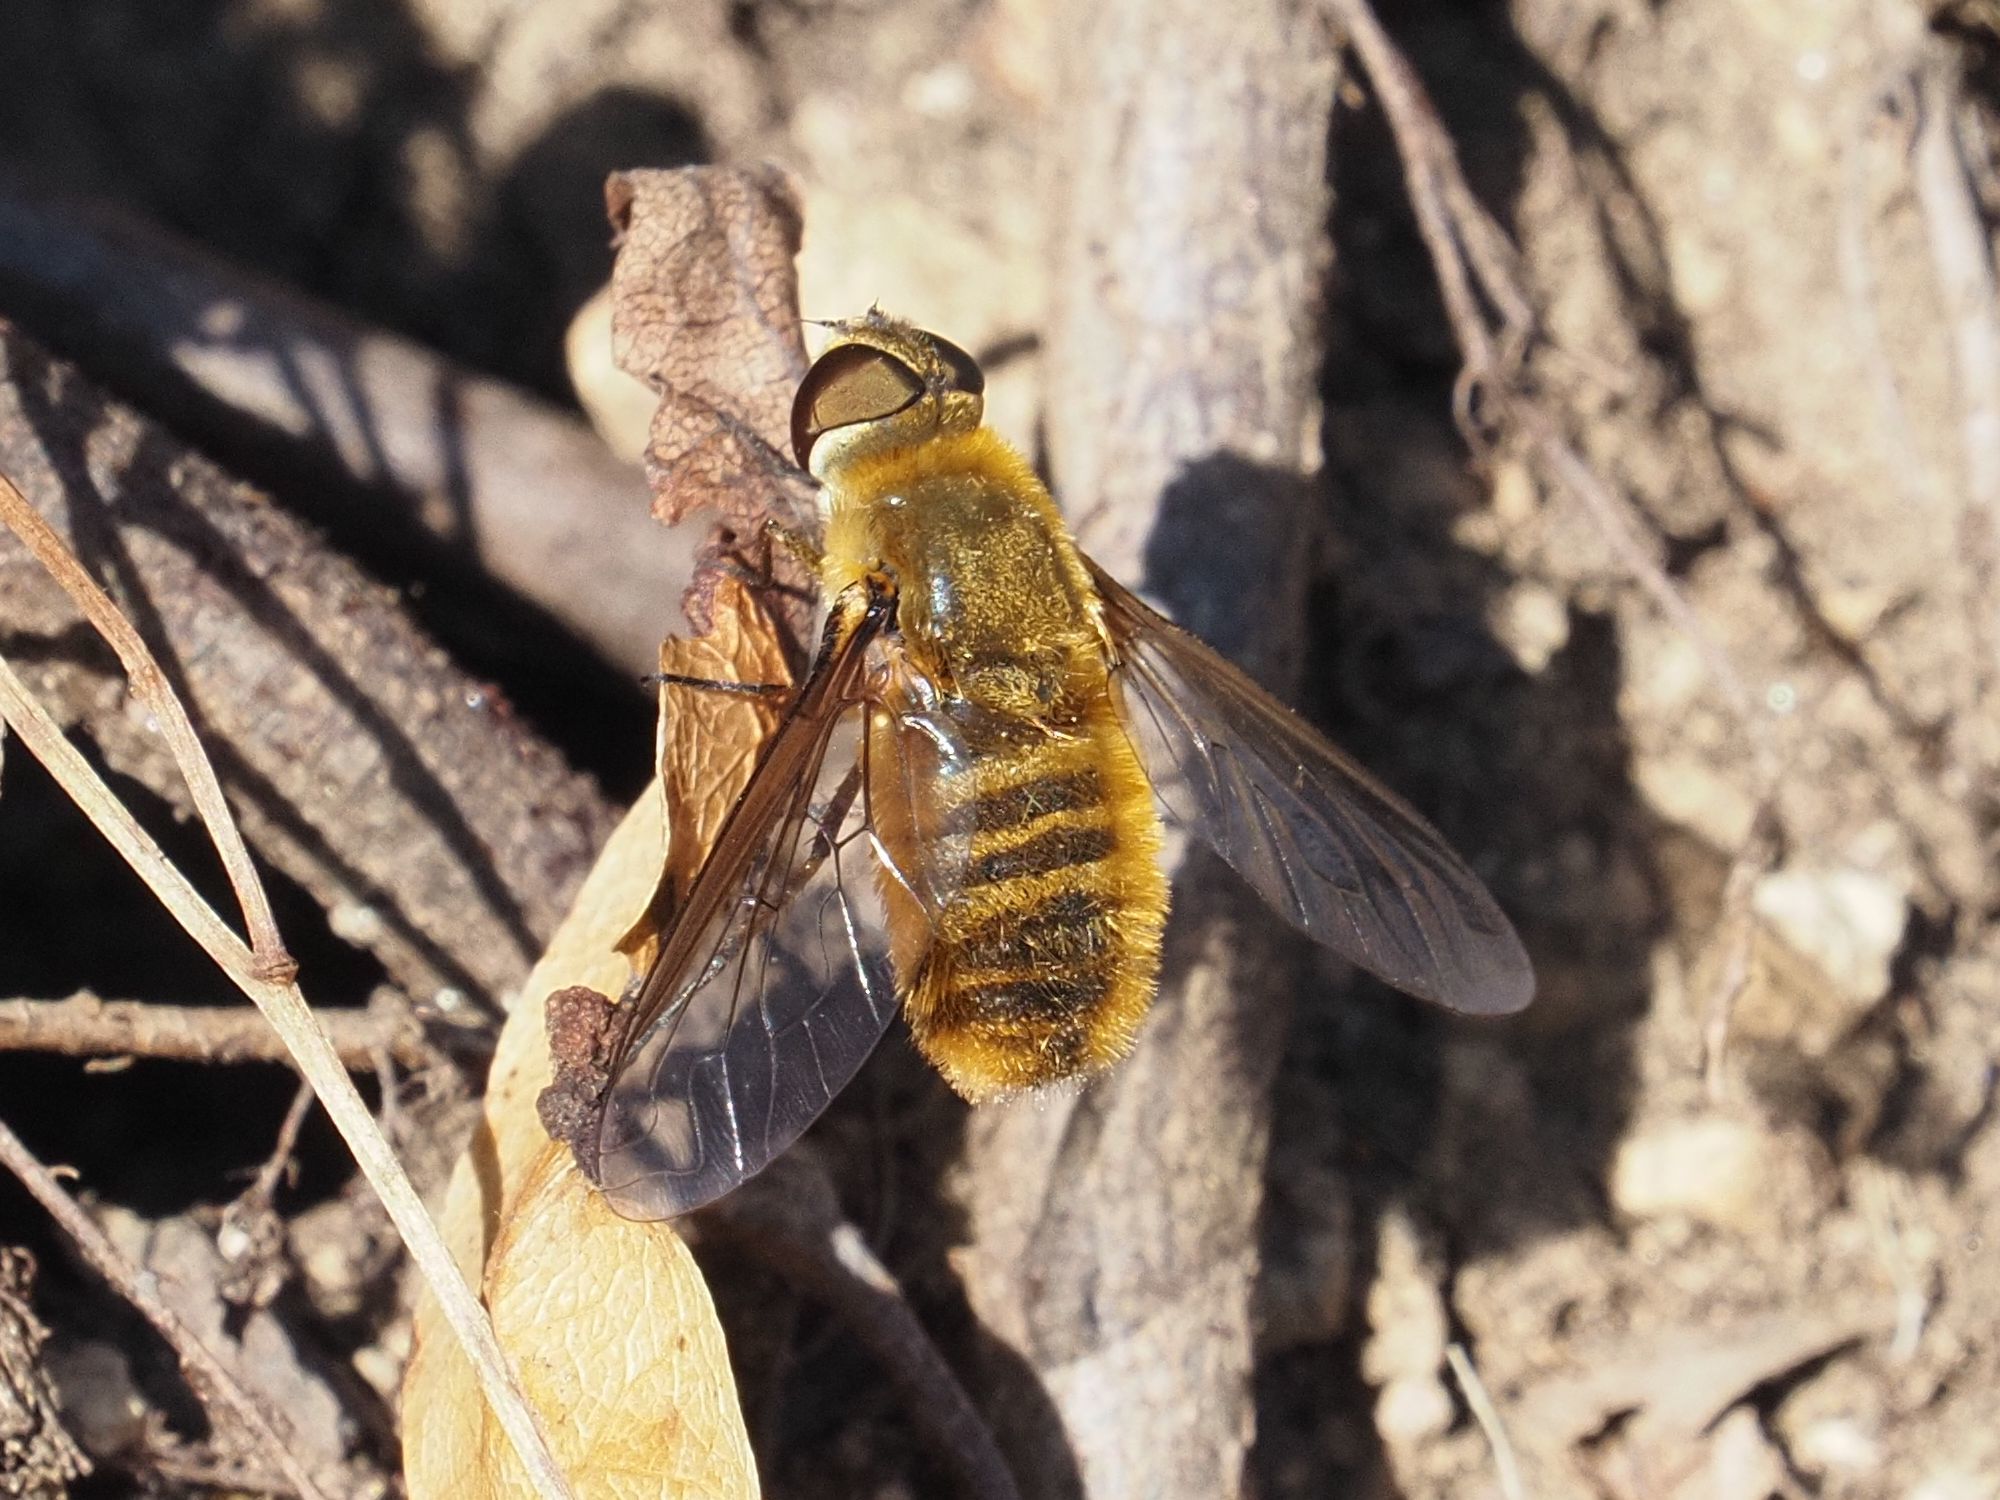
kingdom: Animalia
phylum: Arthropoda
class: Insecta
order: Diptera
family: Bombyliidae
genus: Villa
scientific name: Villa hottentotta
